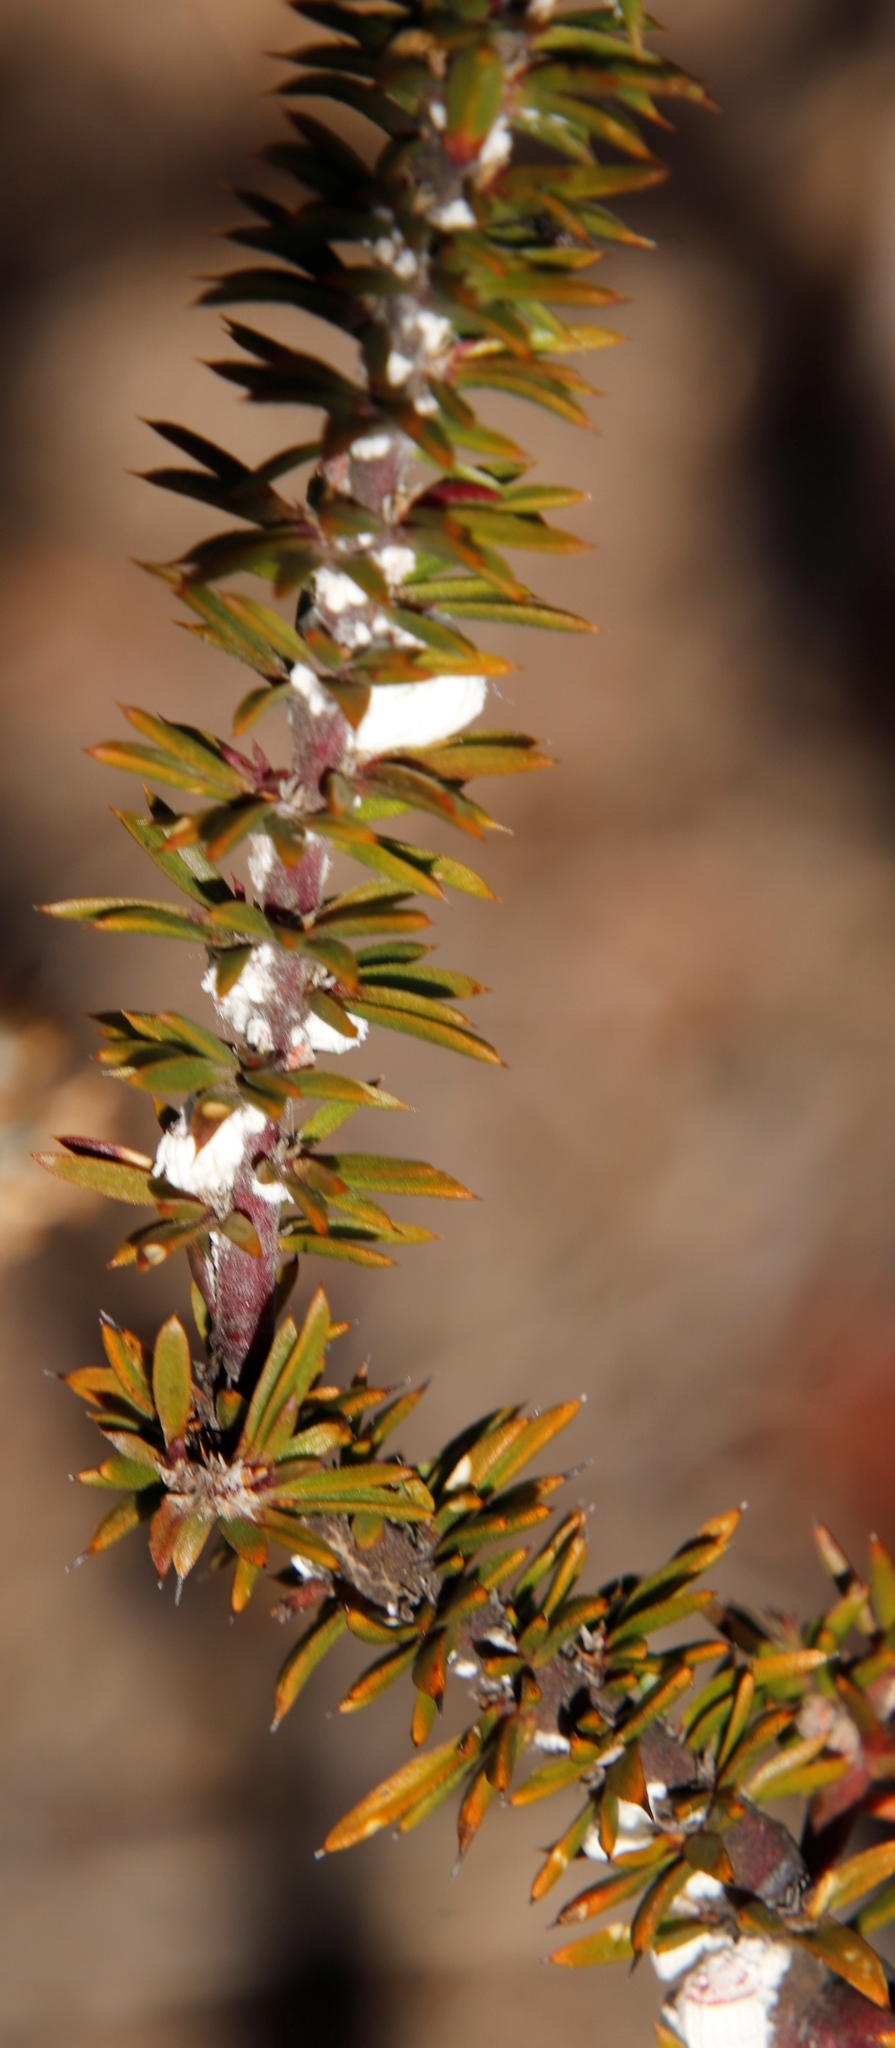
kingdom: Animalia
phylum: Arthropoda
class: Insecta
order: Hemiptera
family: Margarodidae
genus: Icerya
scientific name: Icerya purchasi
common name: Cottony cushion scale
